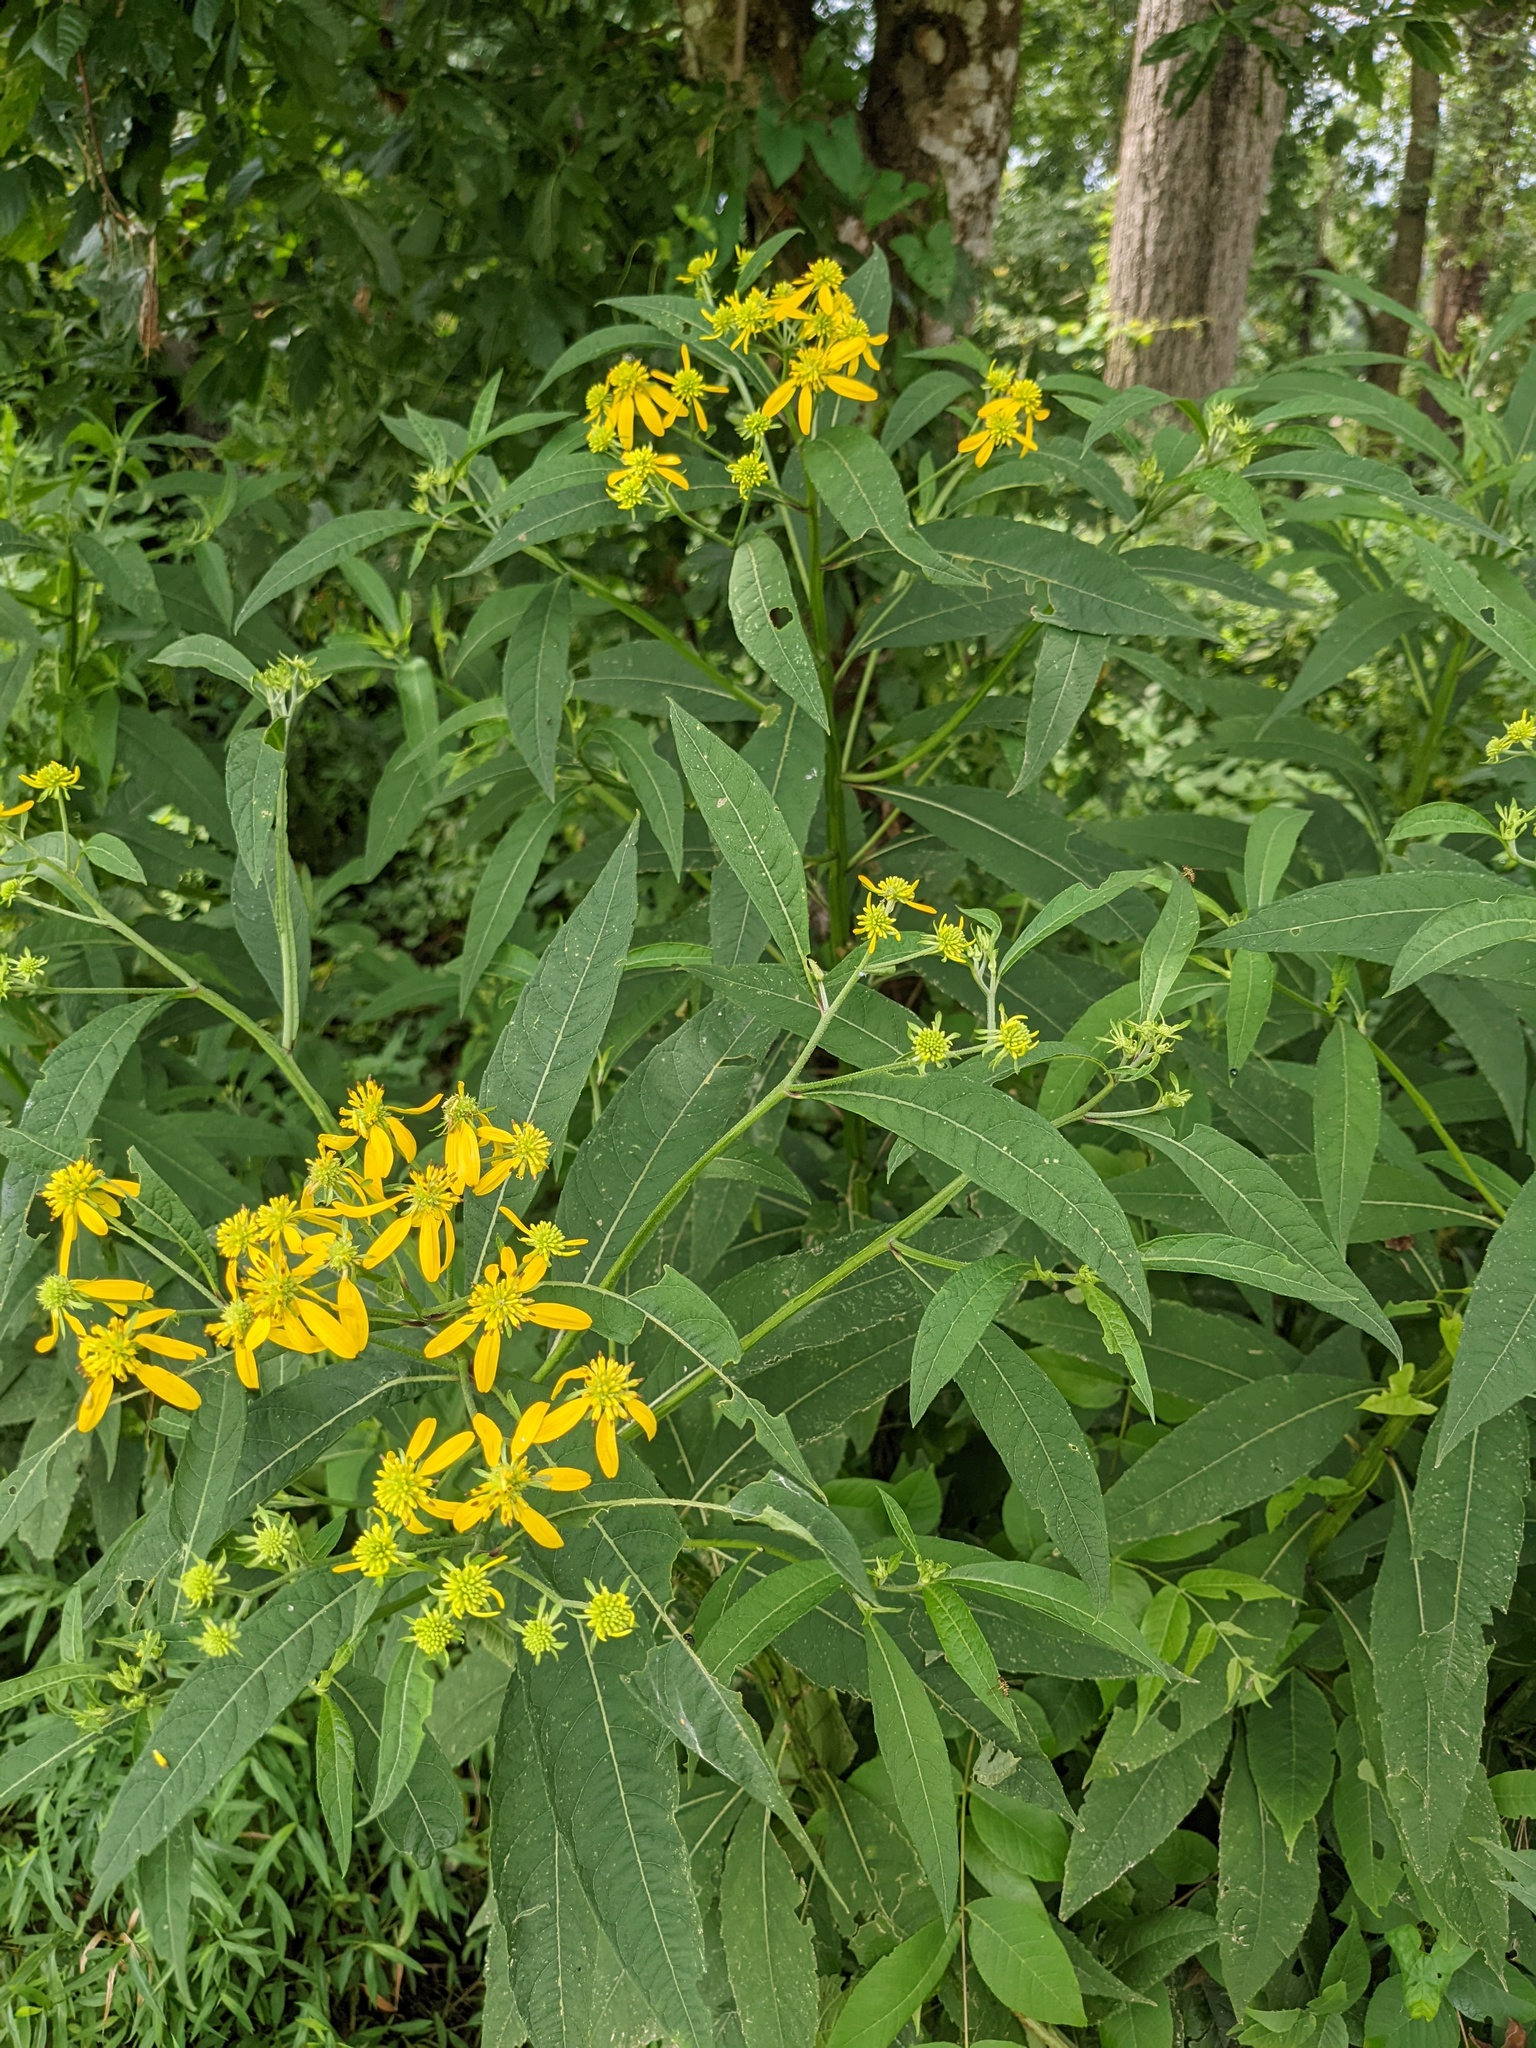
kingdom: Plantae
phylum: Tracheophyta
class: Magnoliopsida
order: Asterales
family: Asteraceae
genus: Verbesina
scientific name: Verbesina alternifolia
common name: Wingstem
